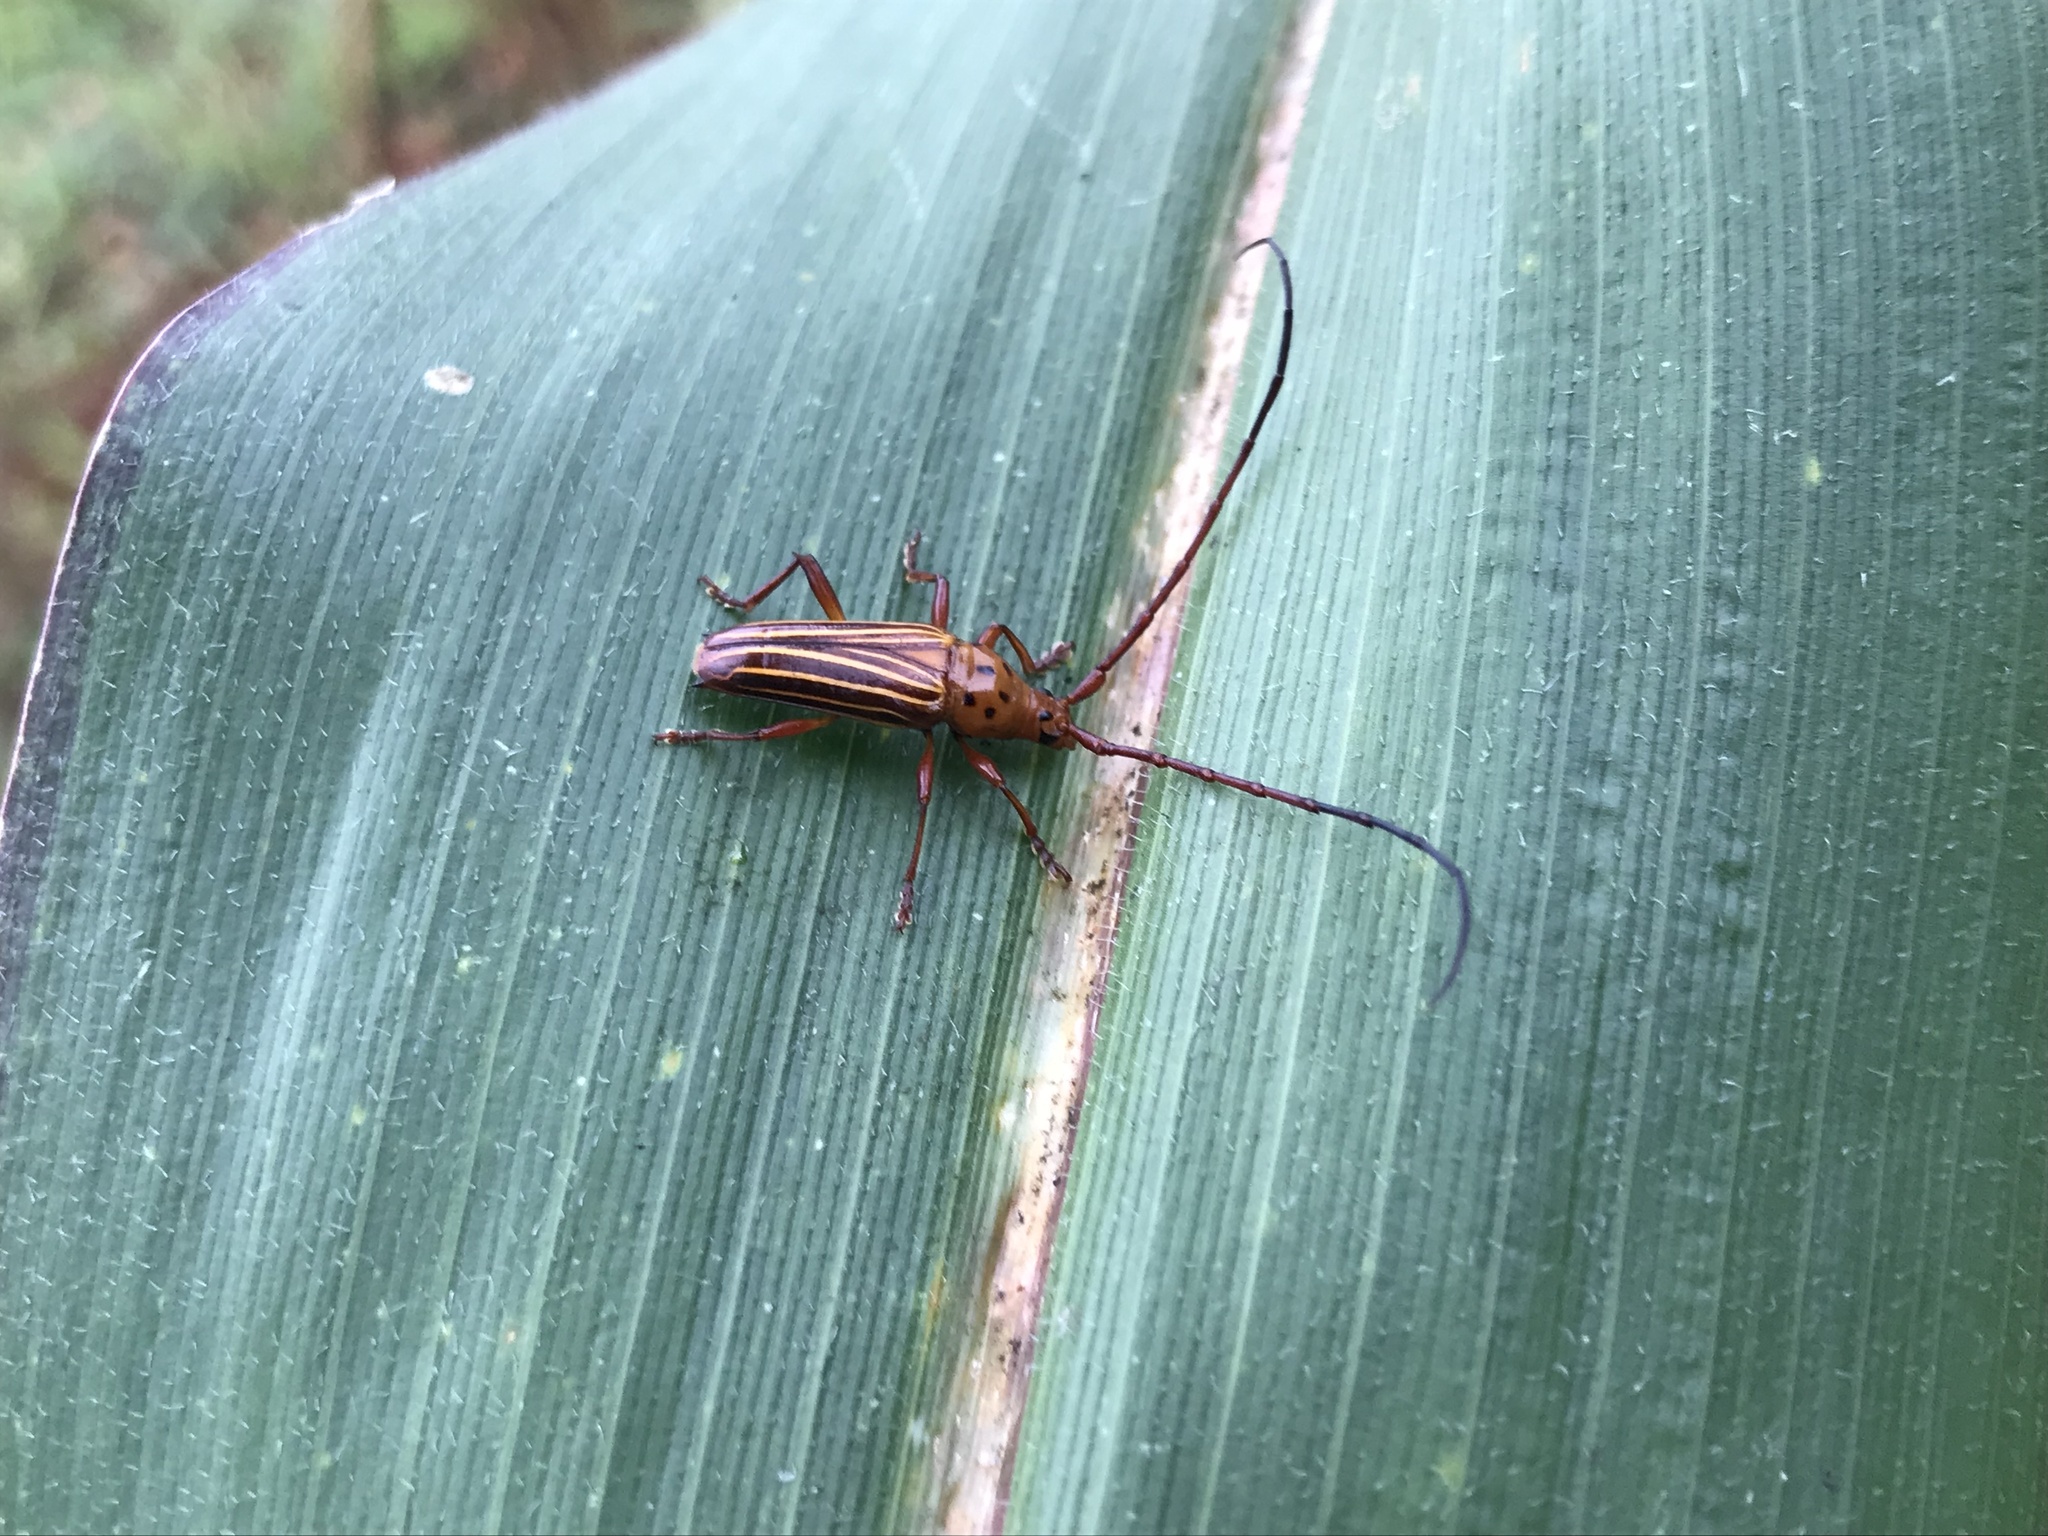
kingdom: Animalia
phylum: Arthropoda
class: Insecta
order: Coleoptera
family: Cerambycidae
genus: Oxymerus
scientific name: Oxymerus aculeatus
